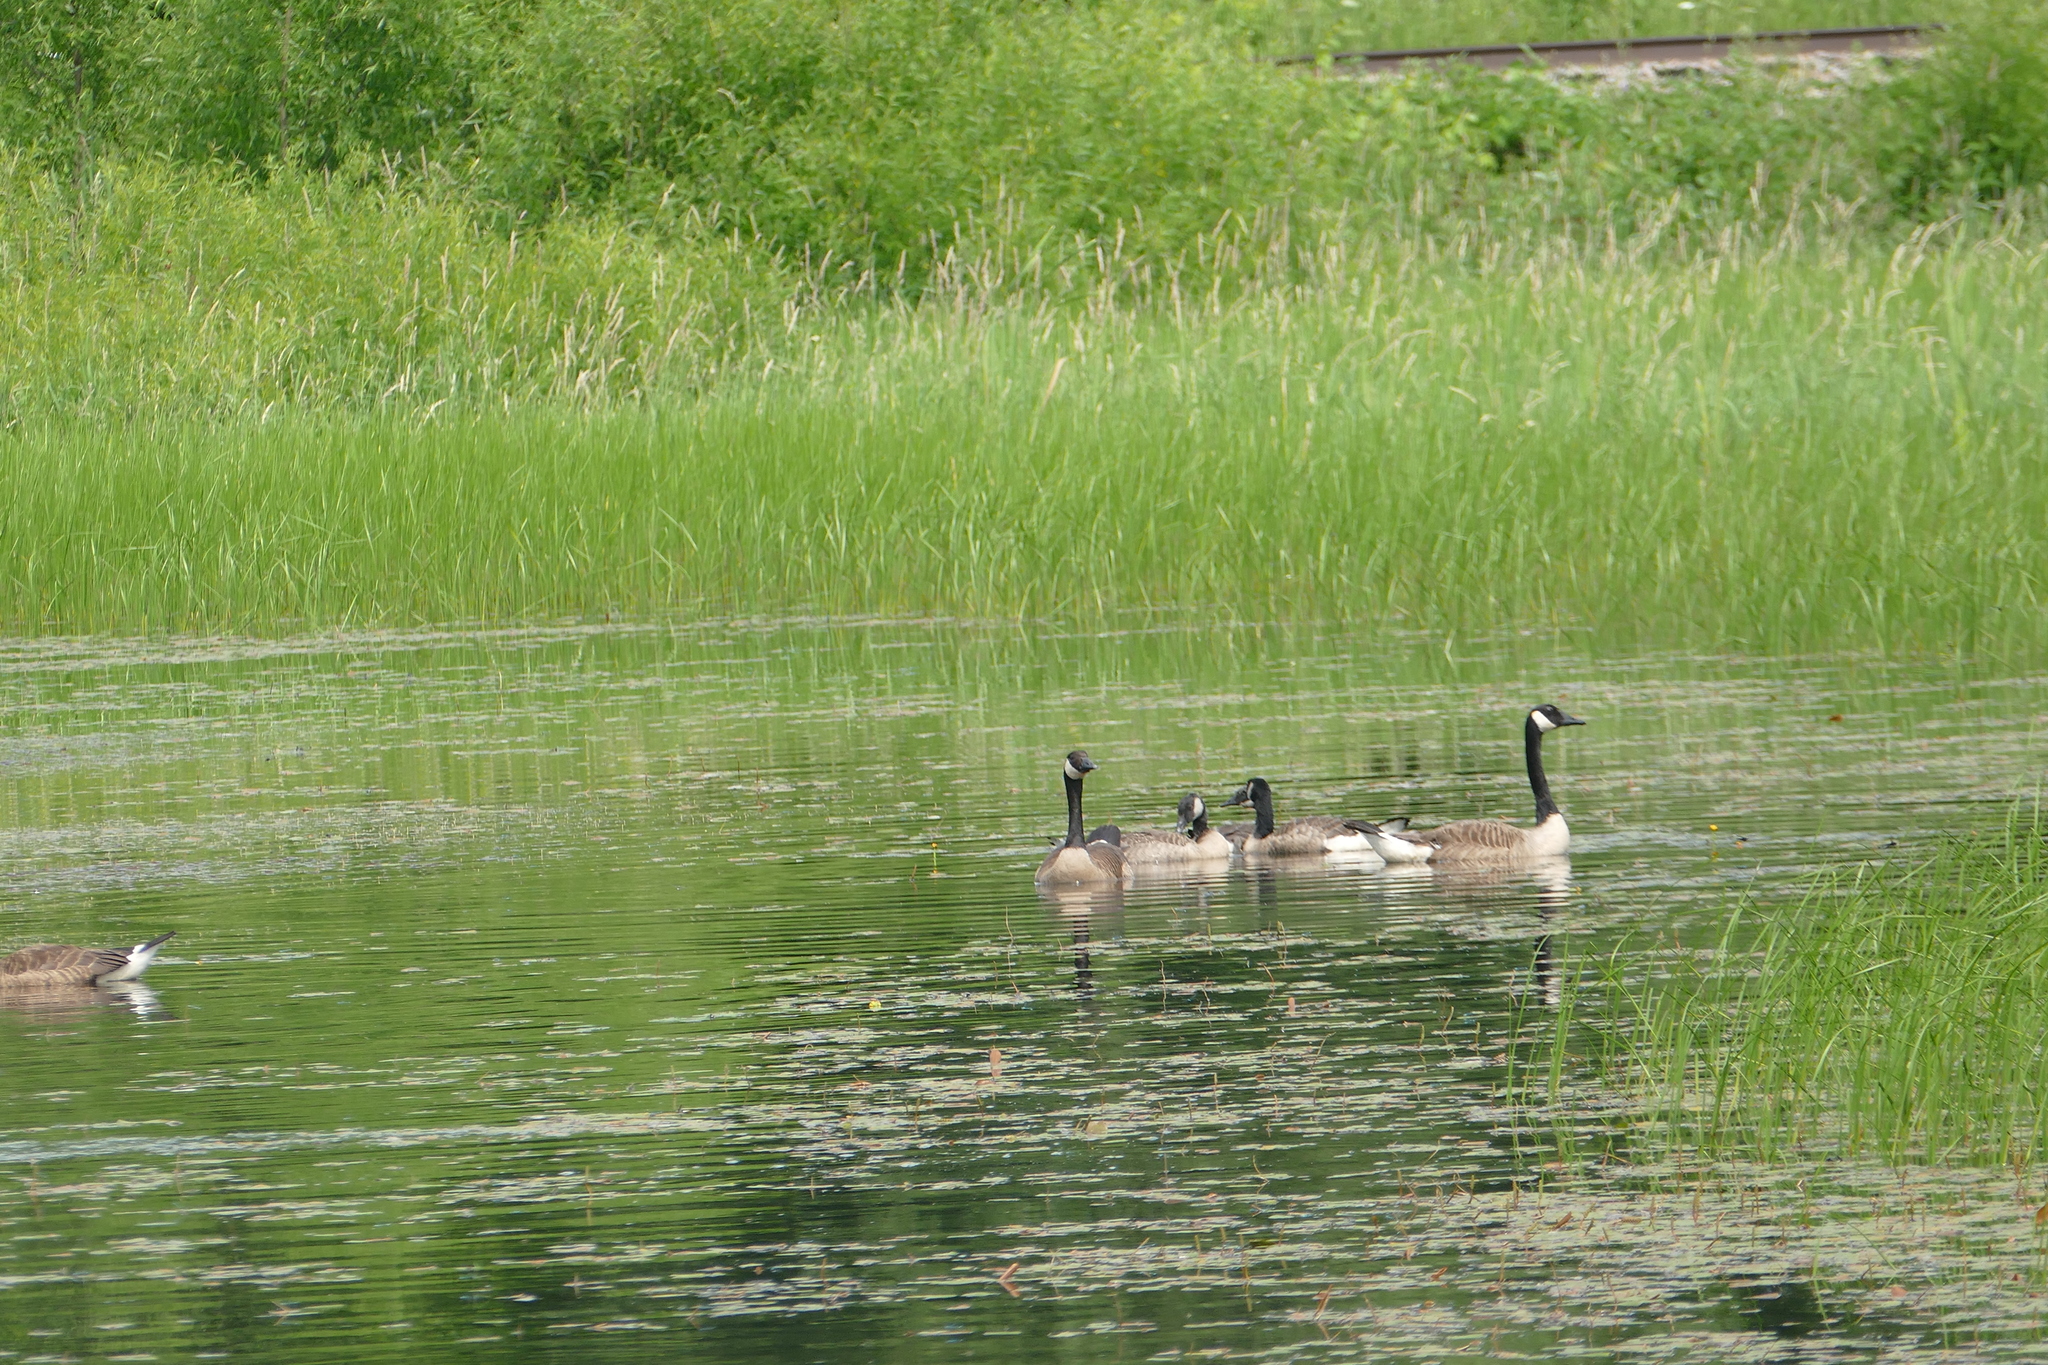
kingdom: Animalia
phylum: Chordata
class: Aves
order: Anseriformes
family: Anatidae
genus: Branta
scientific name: Branta canadensis
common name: Canada goose
